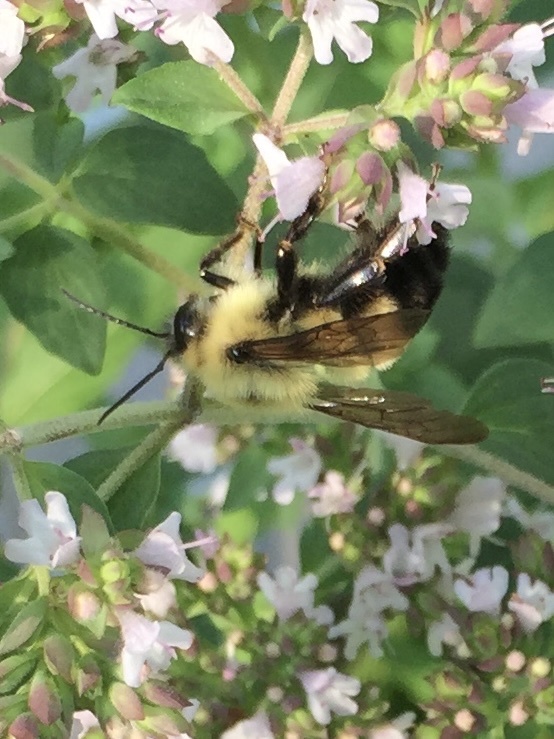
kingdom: Animalia
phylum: Arthropoda
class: Insecta
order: Hymenoptera
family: Apidae
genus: Bombus
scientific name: Bombus bimaculatus
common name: Two-spotted bumble bee
